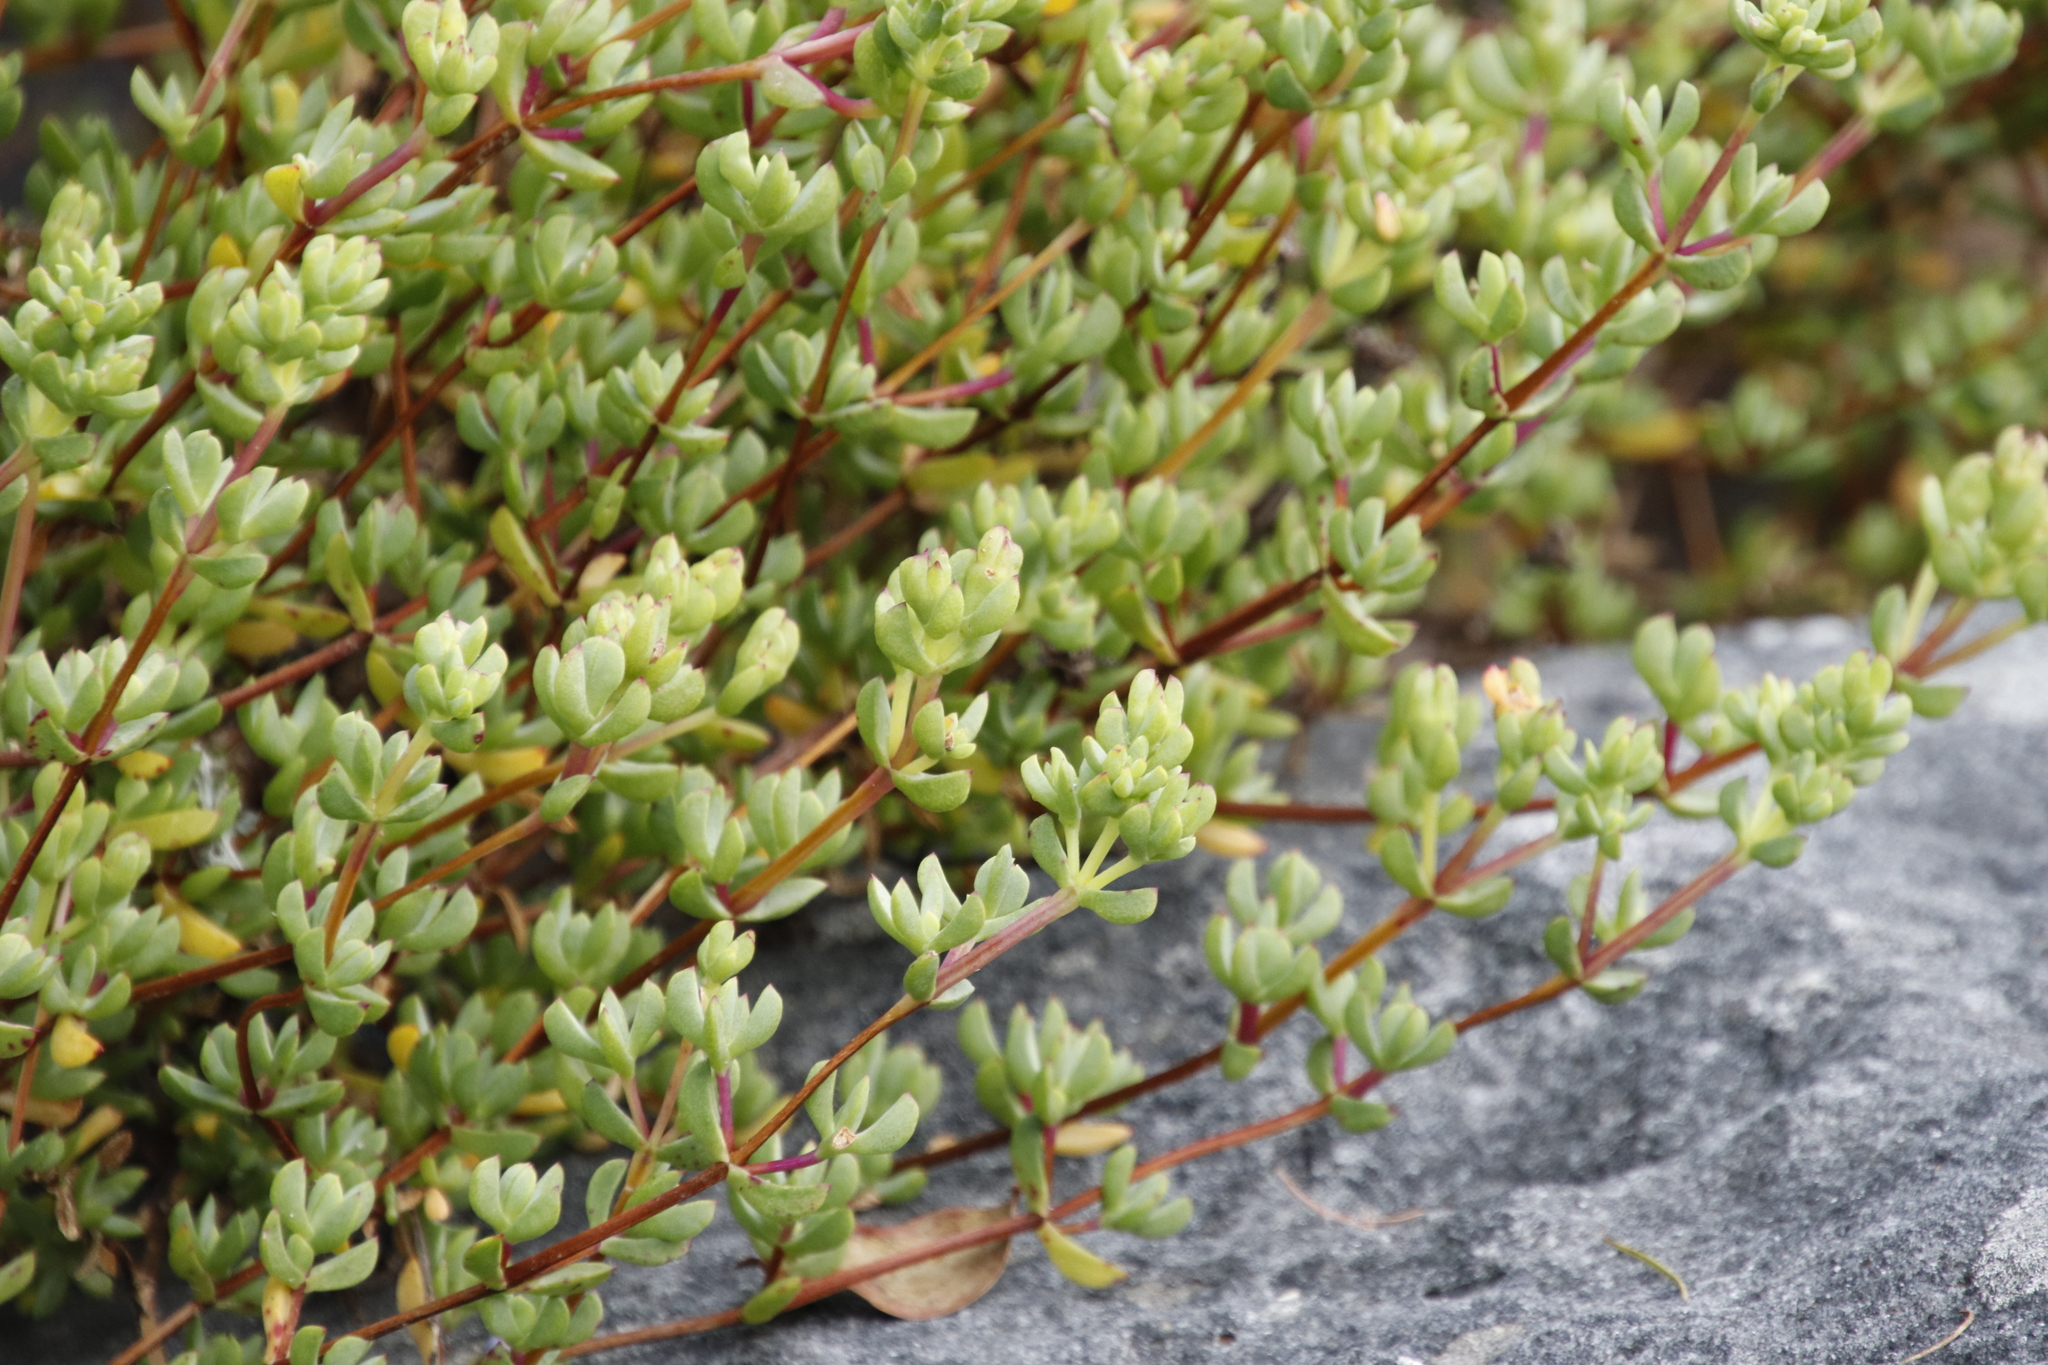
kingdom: Plantae
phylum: Tracheophyta
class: Magnoliopsida
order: Caryophyllales
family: Aizoaceae
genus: Oscularia
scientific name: Oscularia falciformis
